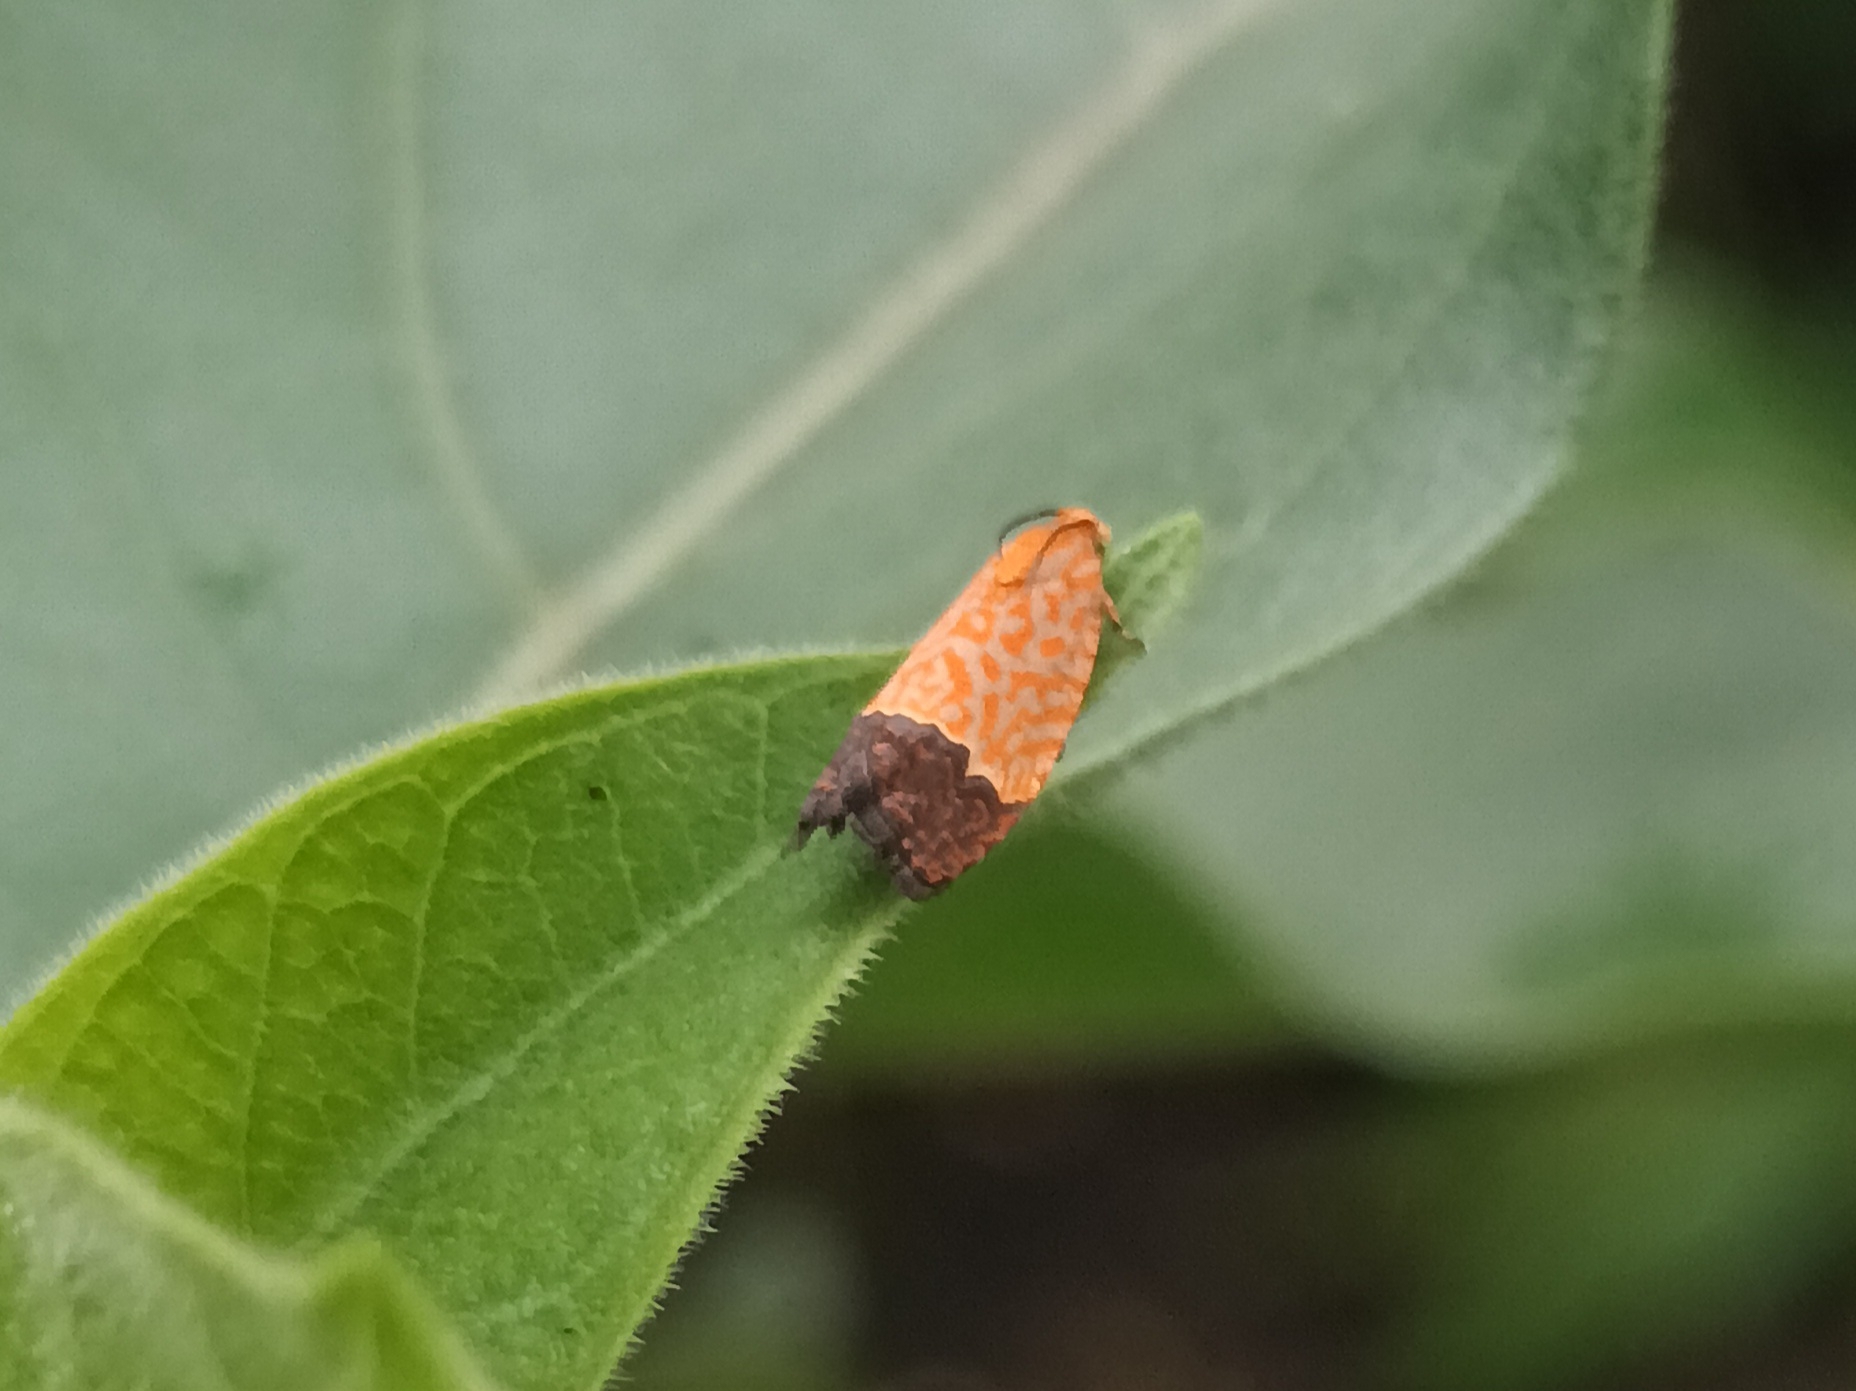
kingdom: Animalia
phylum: Arthropoda
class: Insecta
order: Lepidoptera
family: Tortricidae
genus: Loboschiza
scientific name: Loboschiza koenigiana
